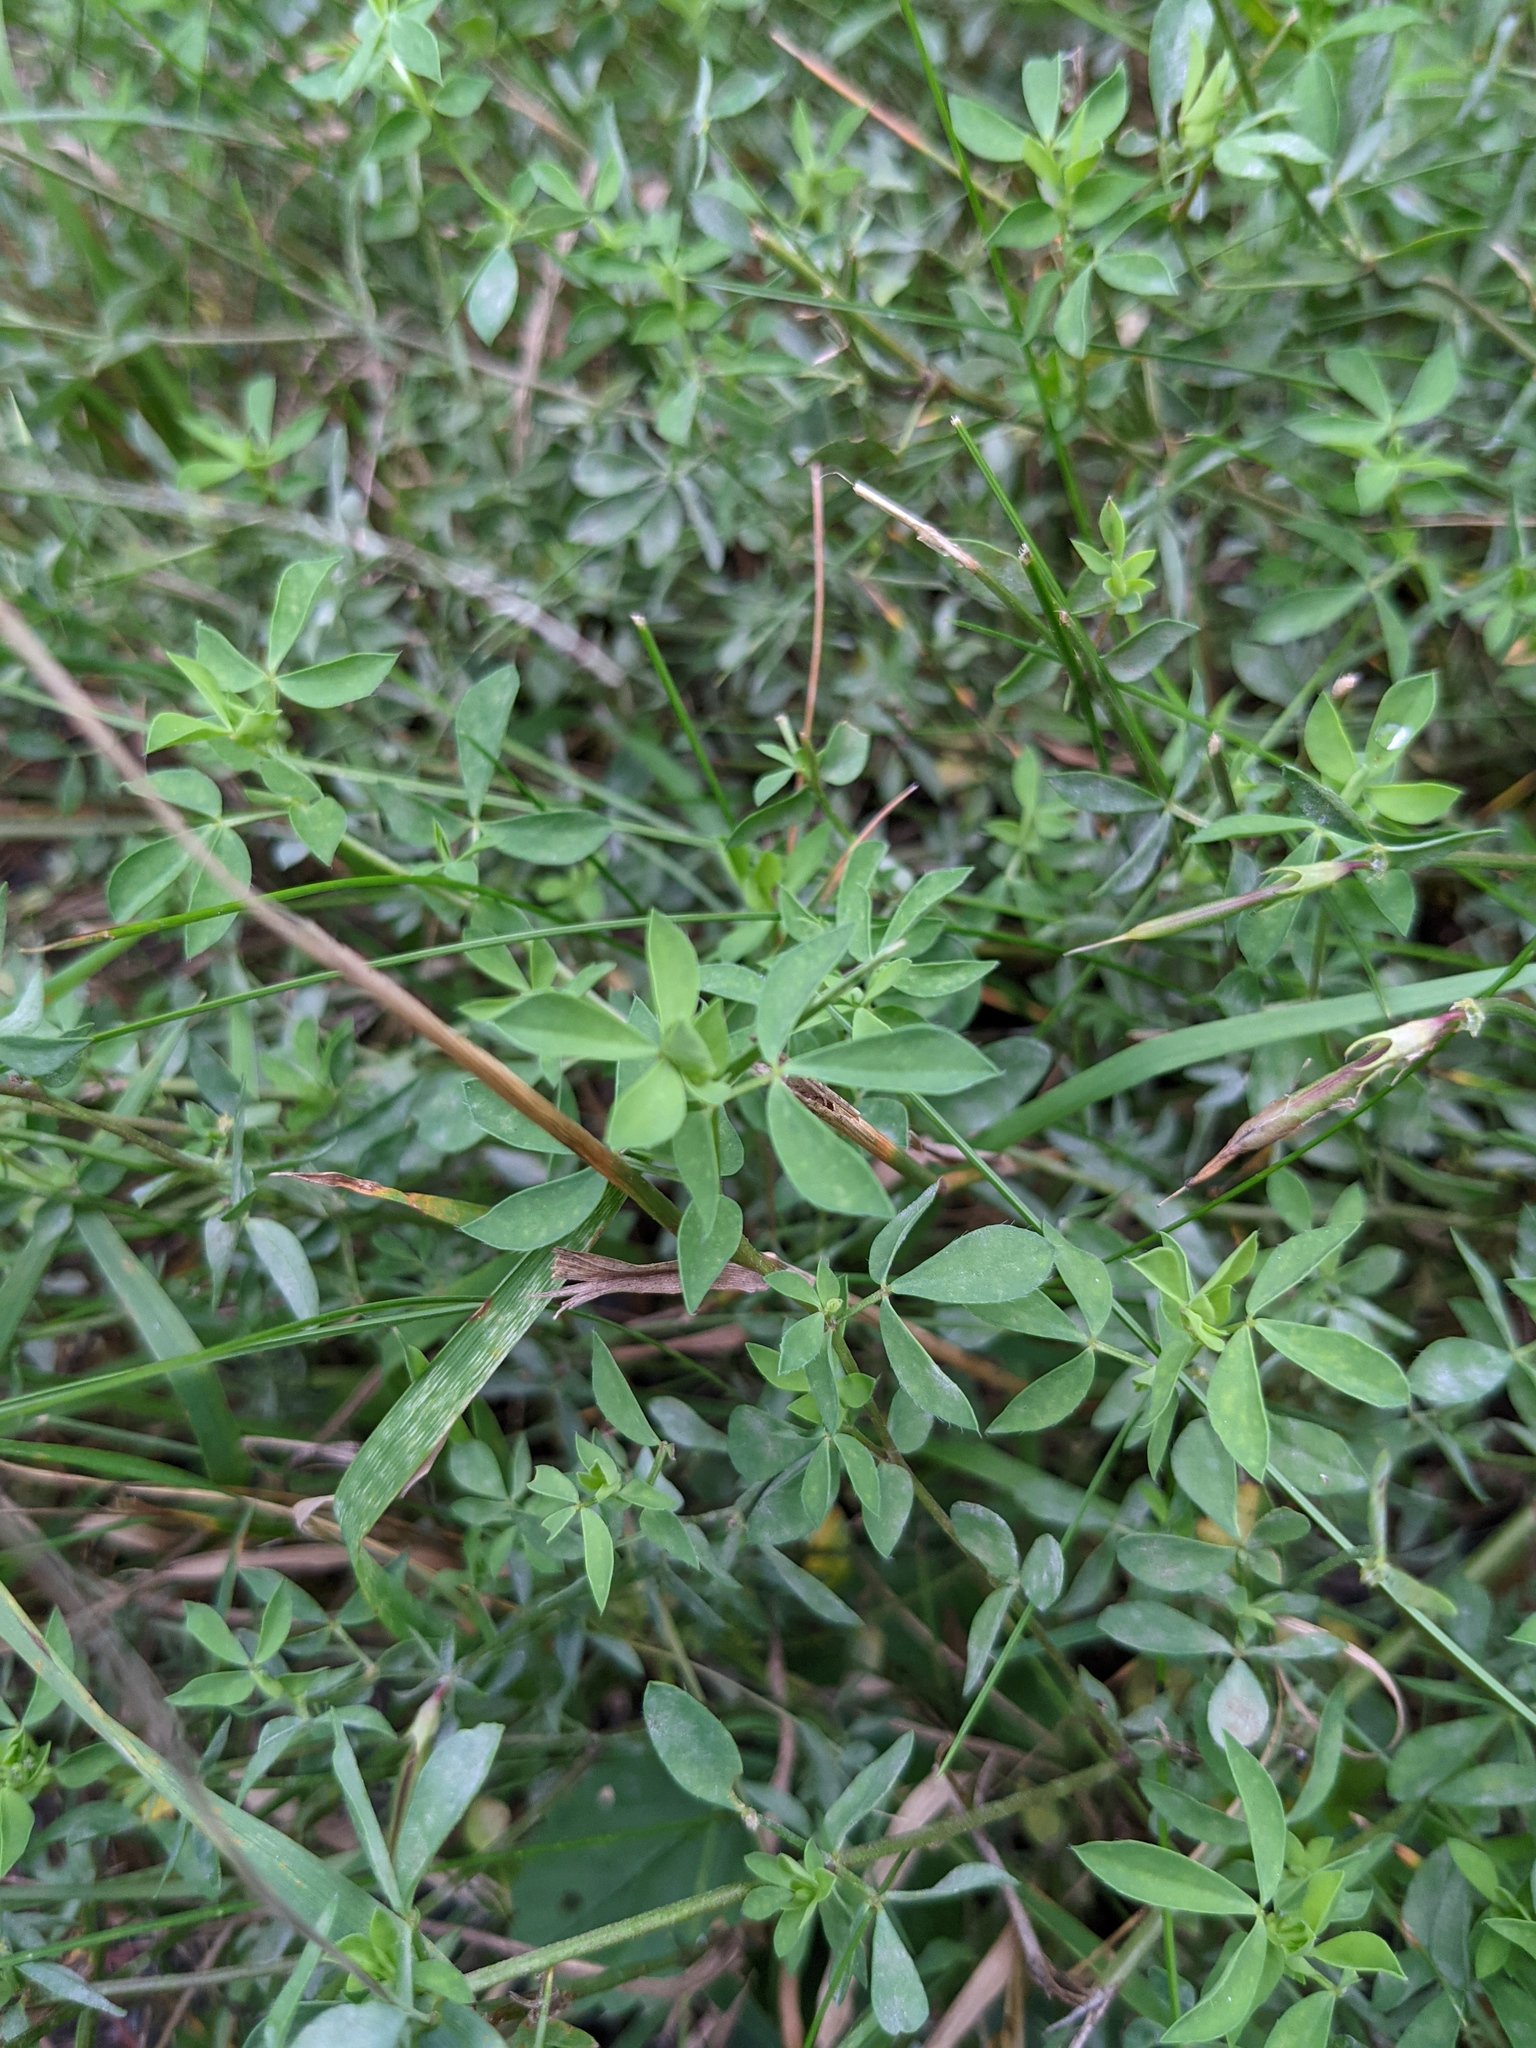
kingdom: Plantae
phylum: Tracheophyta
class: Magnoliopsida
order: Fabales
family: Fabaceae
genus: Lotus
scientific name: Lotus corniculatus
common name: Common bird's-foot-trefoil
